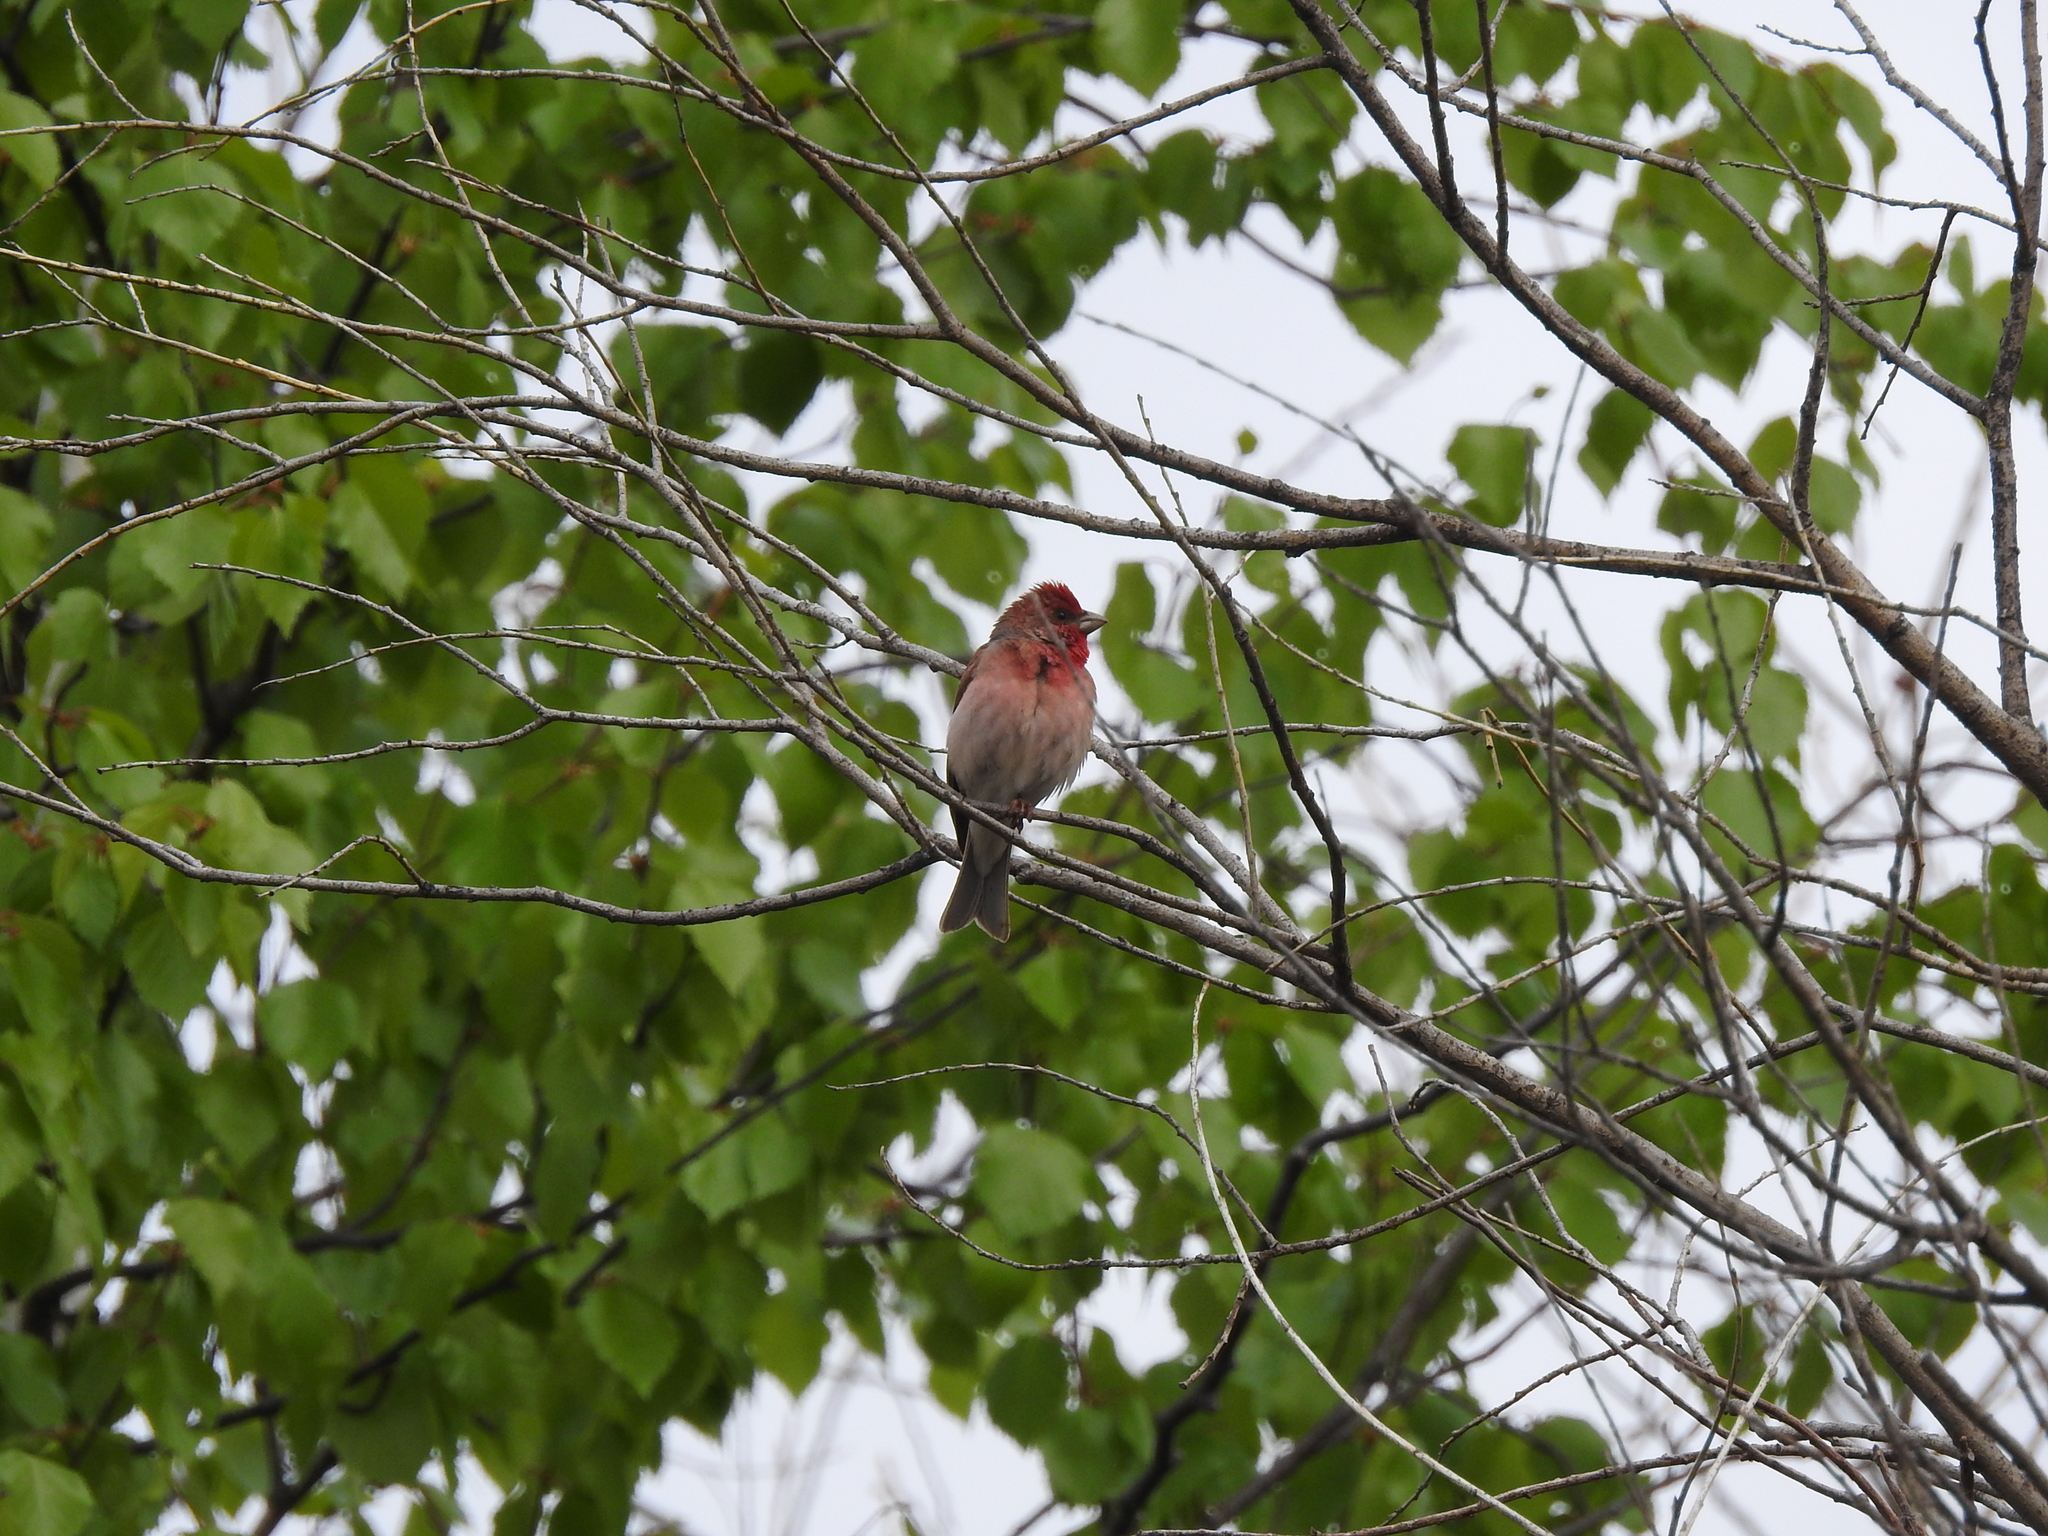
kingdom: Animalia
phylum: Chordata
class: Aves
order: Passeriformes
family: Fringillidae
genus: Carpodacus
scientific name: Carpodacus erythrinus
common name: Common rosefinch
